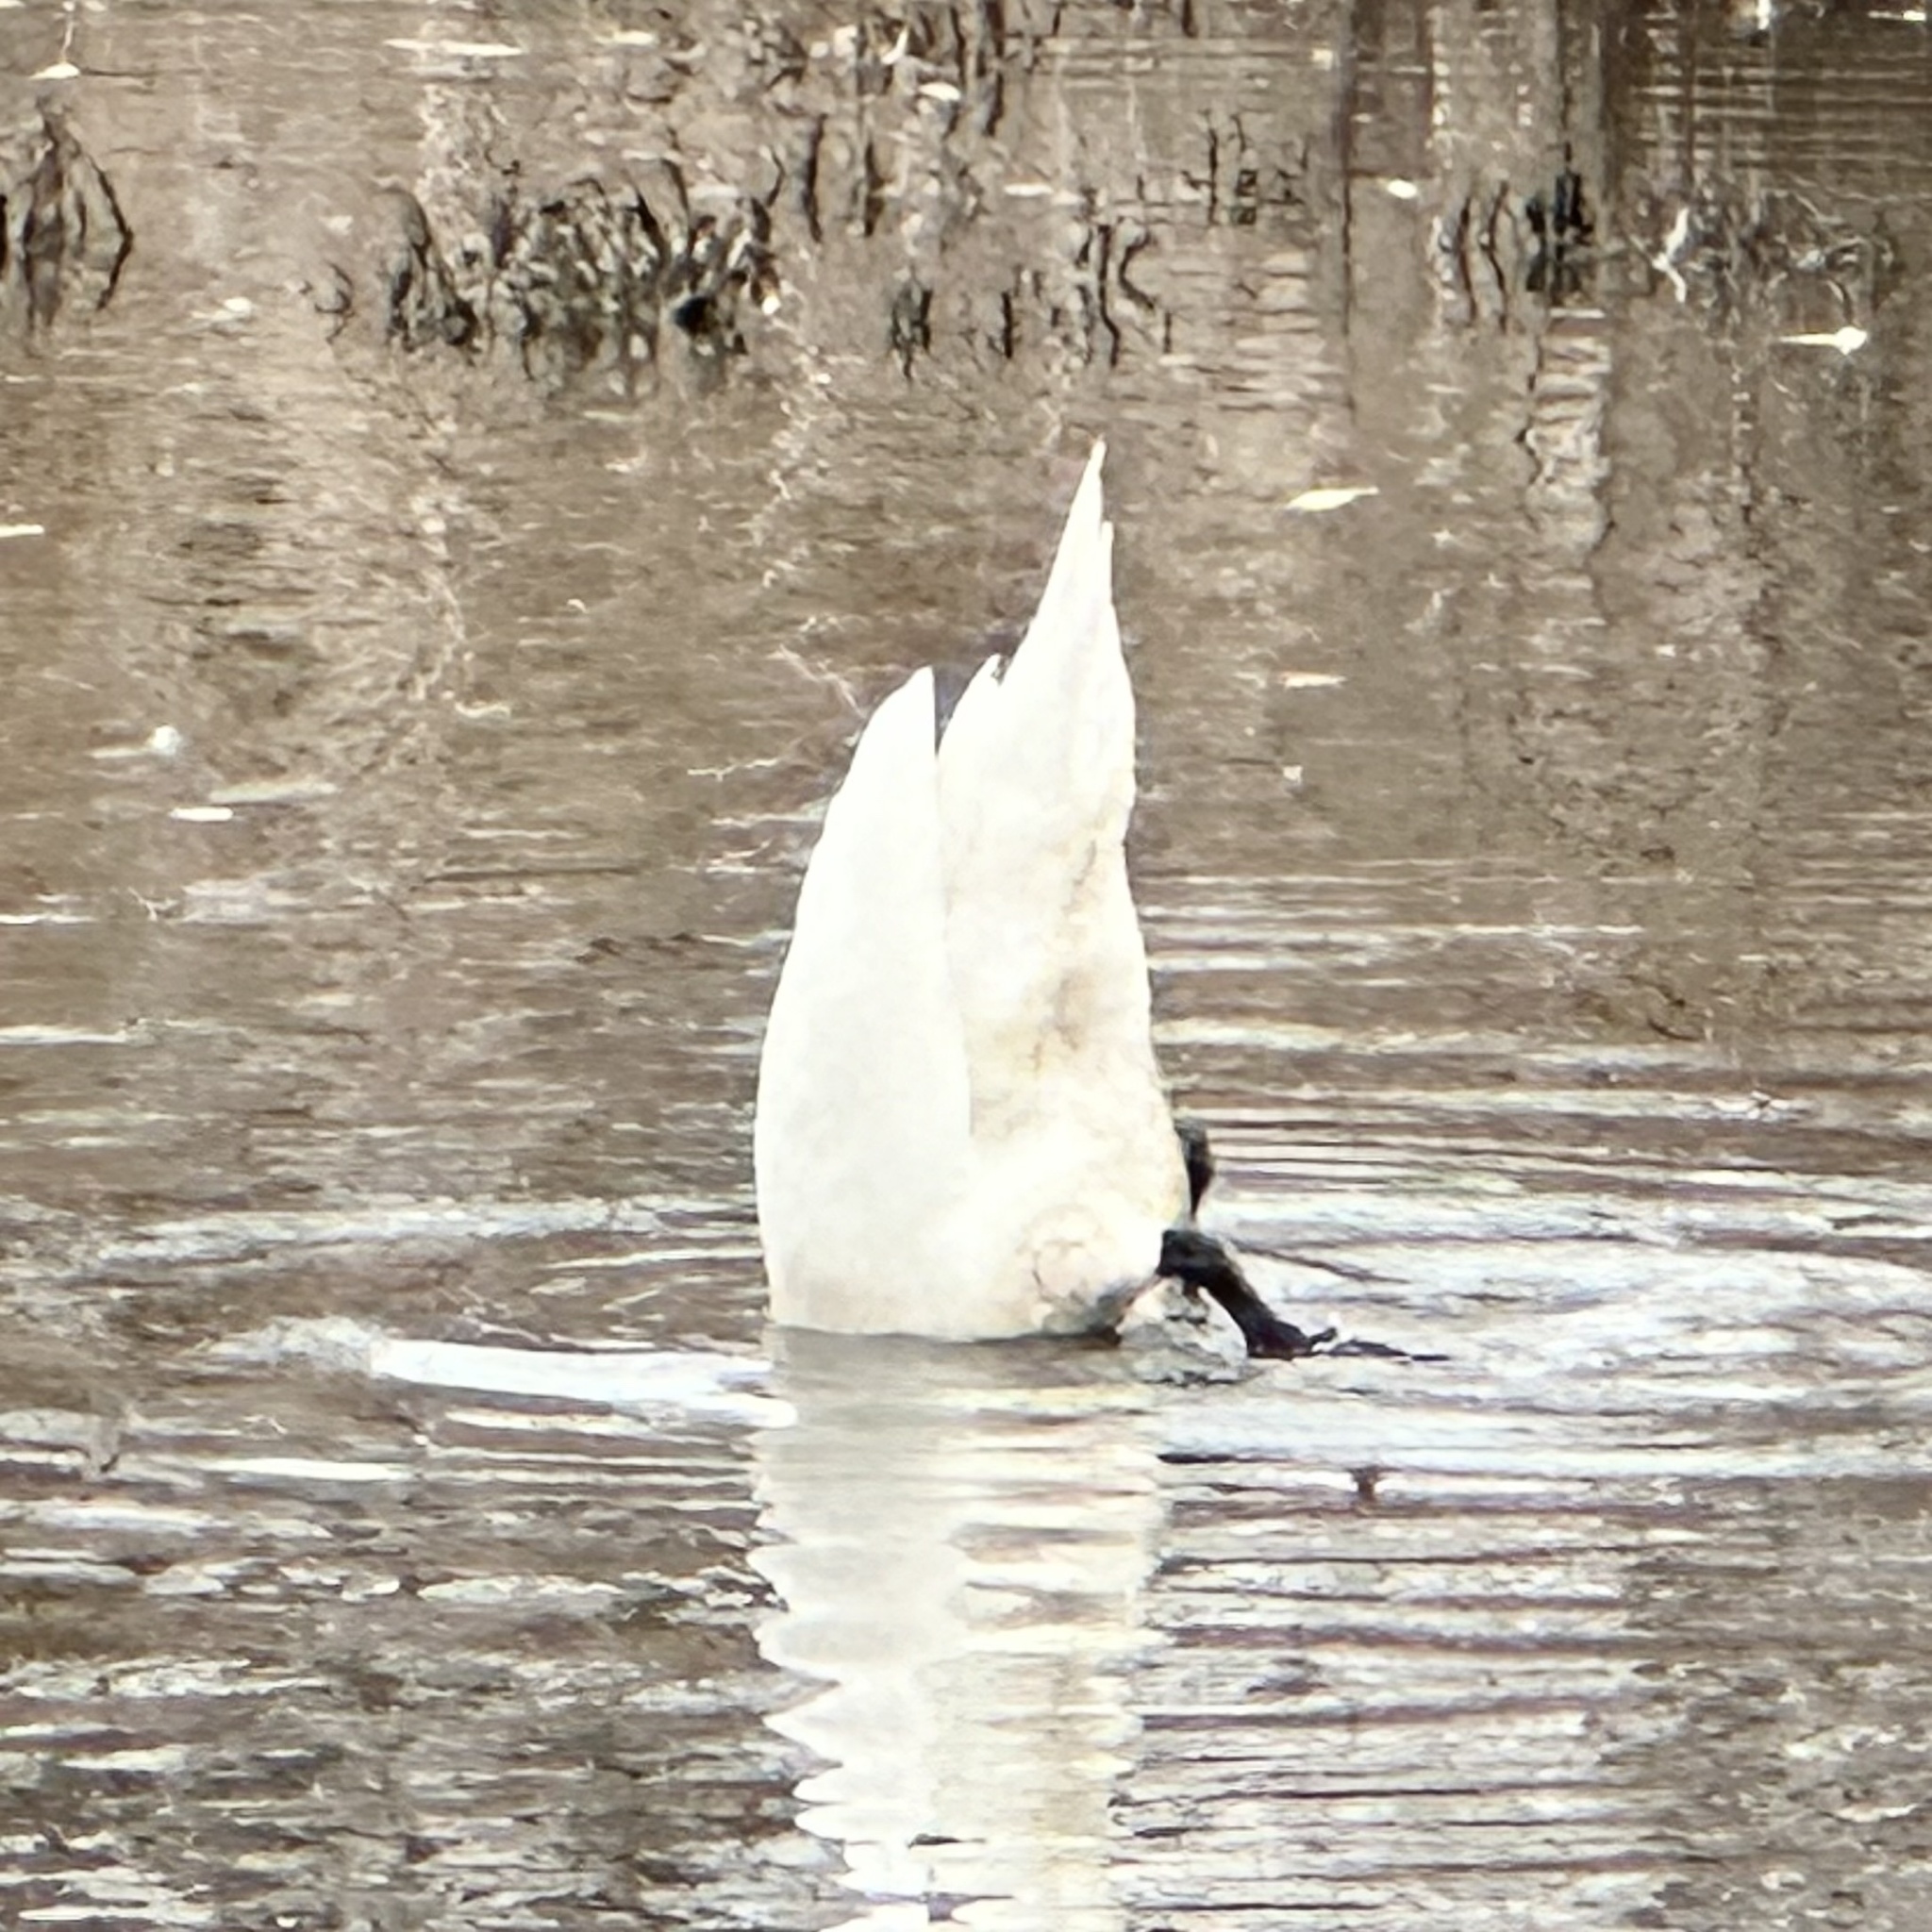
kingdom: Animalia
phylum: Chordata
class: Aves
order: Anseriformes
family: Anatidae
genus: Cygnus
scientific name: Cygnus olor
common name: Mute swan
